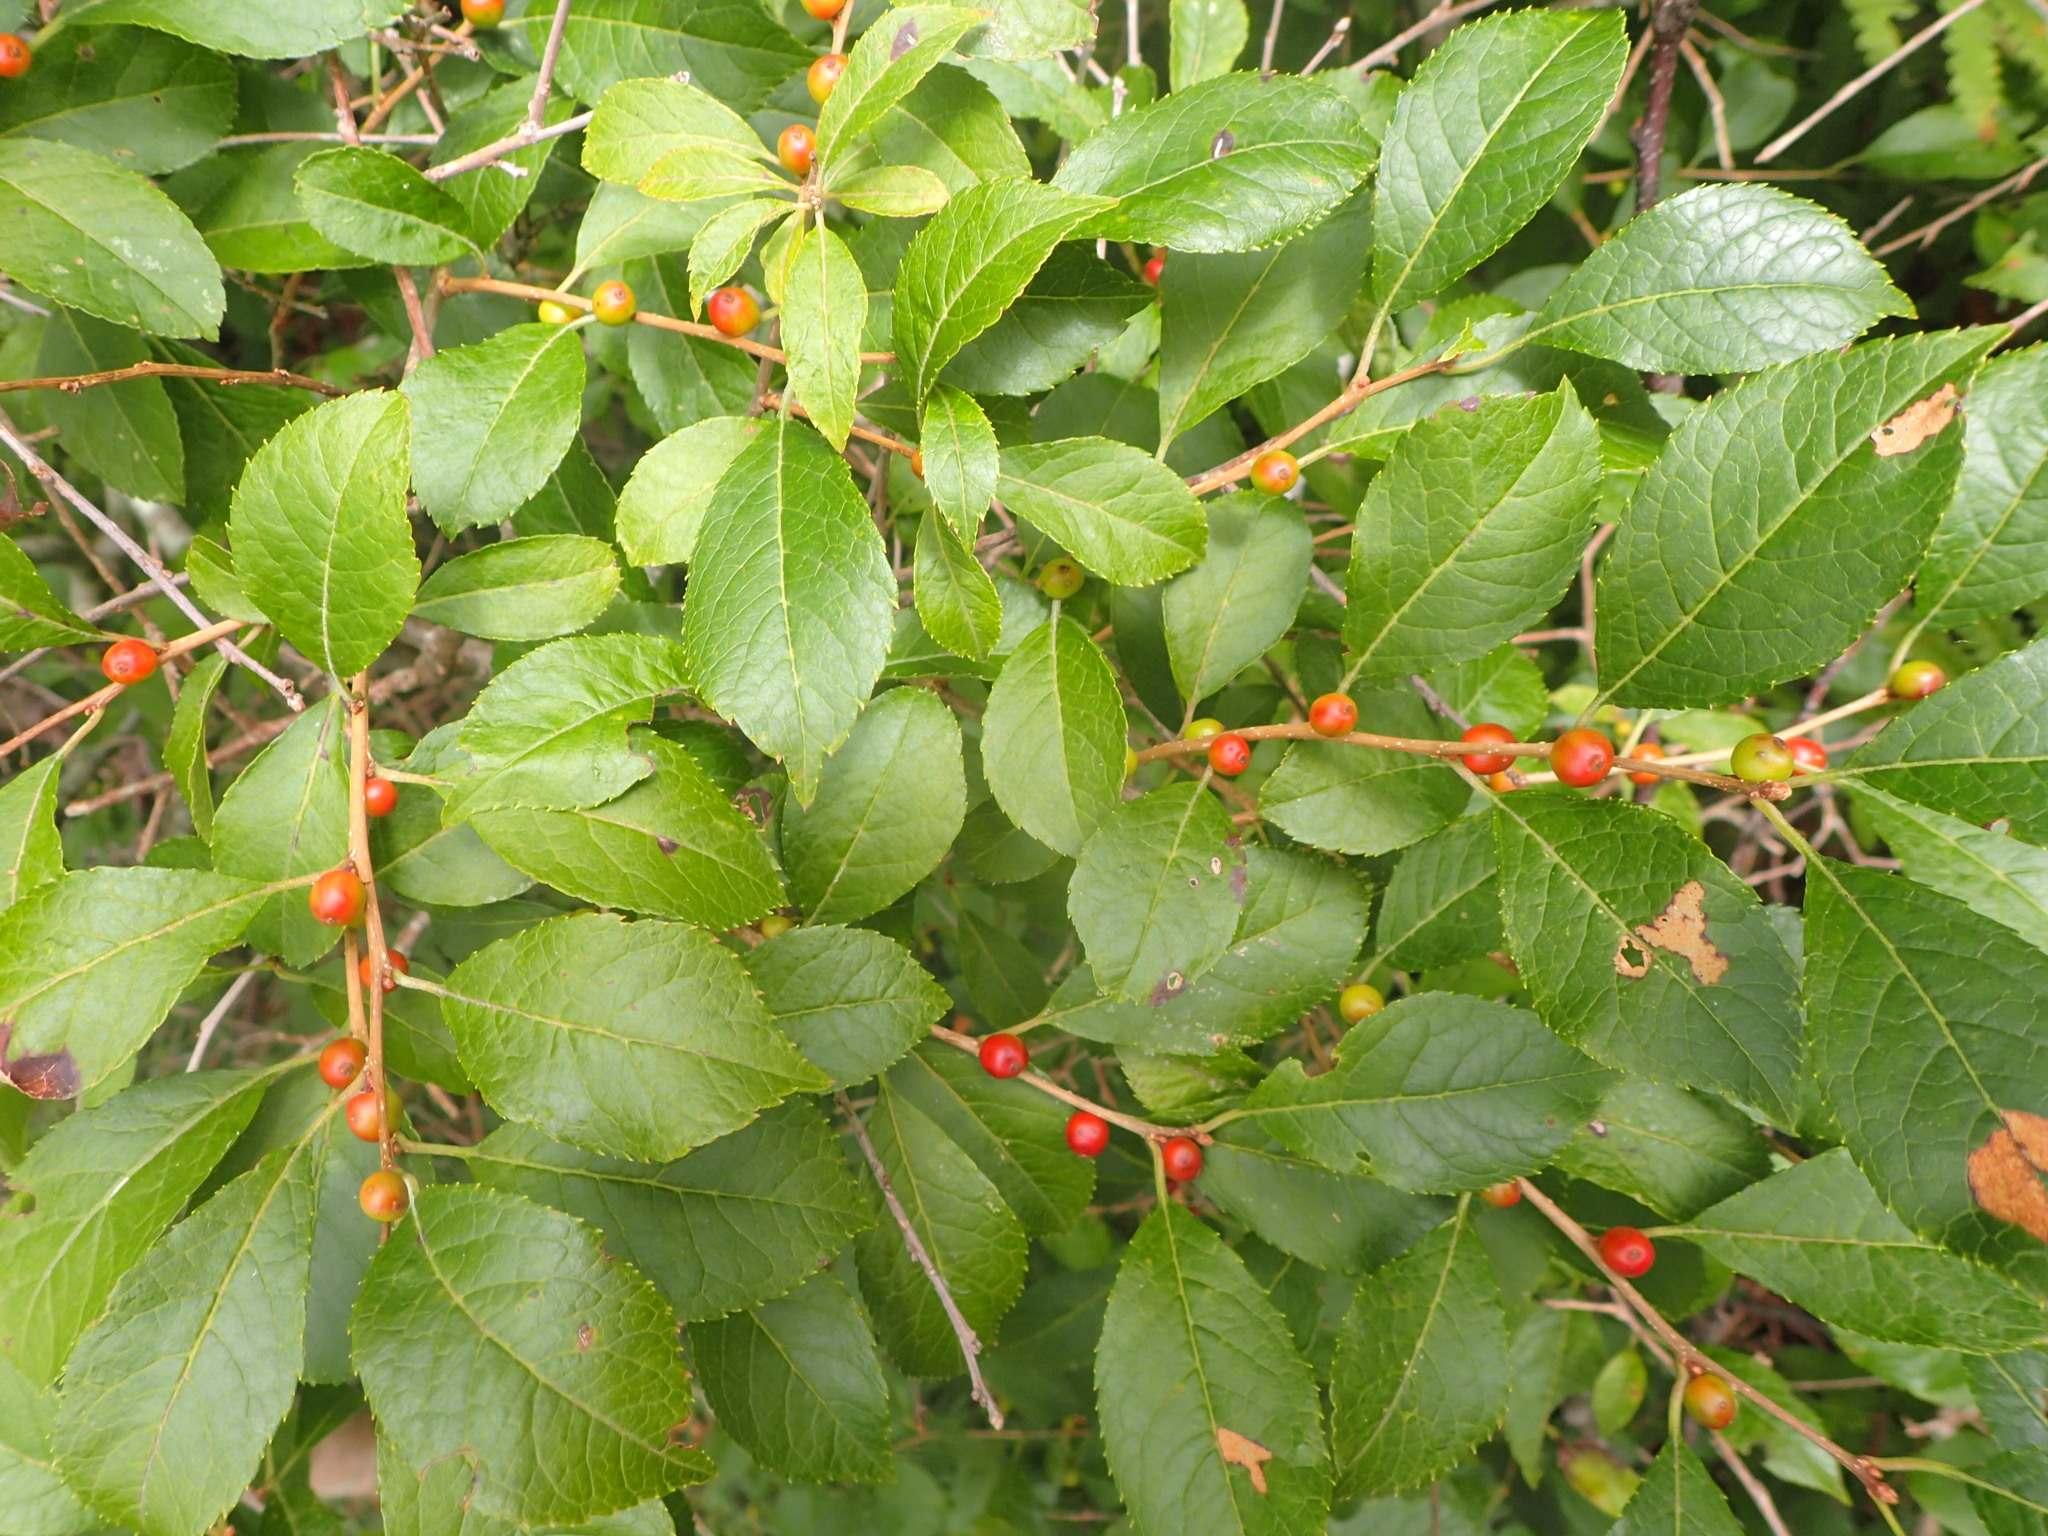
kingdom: Plantae
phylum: Tracheophyta
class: Magnoliopsida
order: Aquifoliales
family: Aquifoliaceae
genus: Ilex
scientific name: Ilex verticillata
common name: Virginia winterberry
